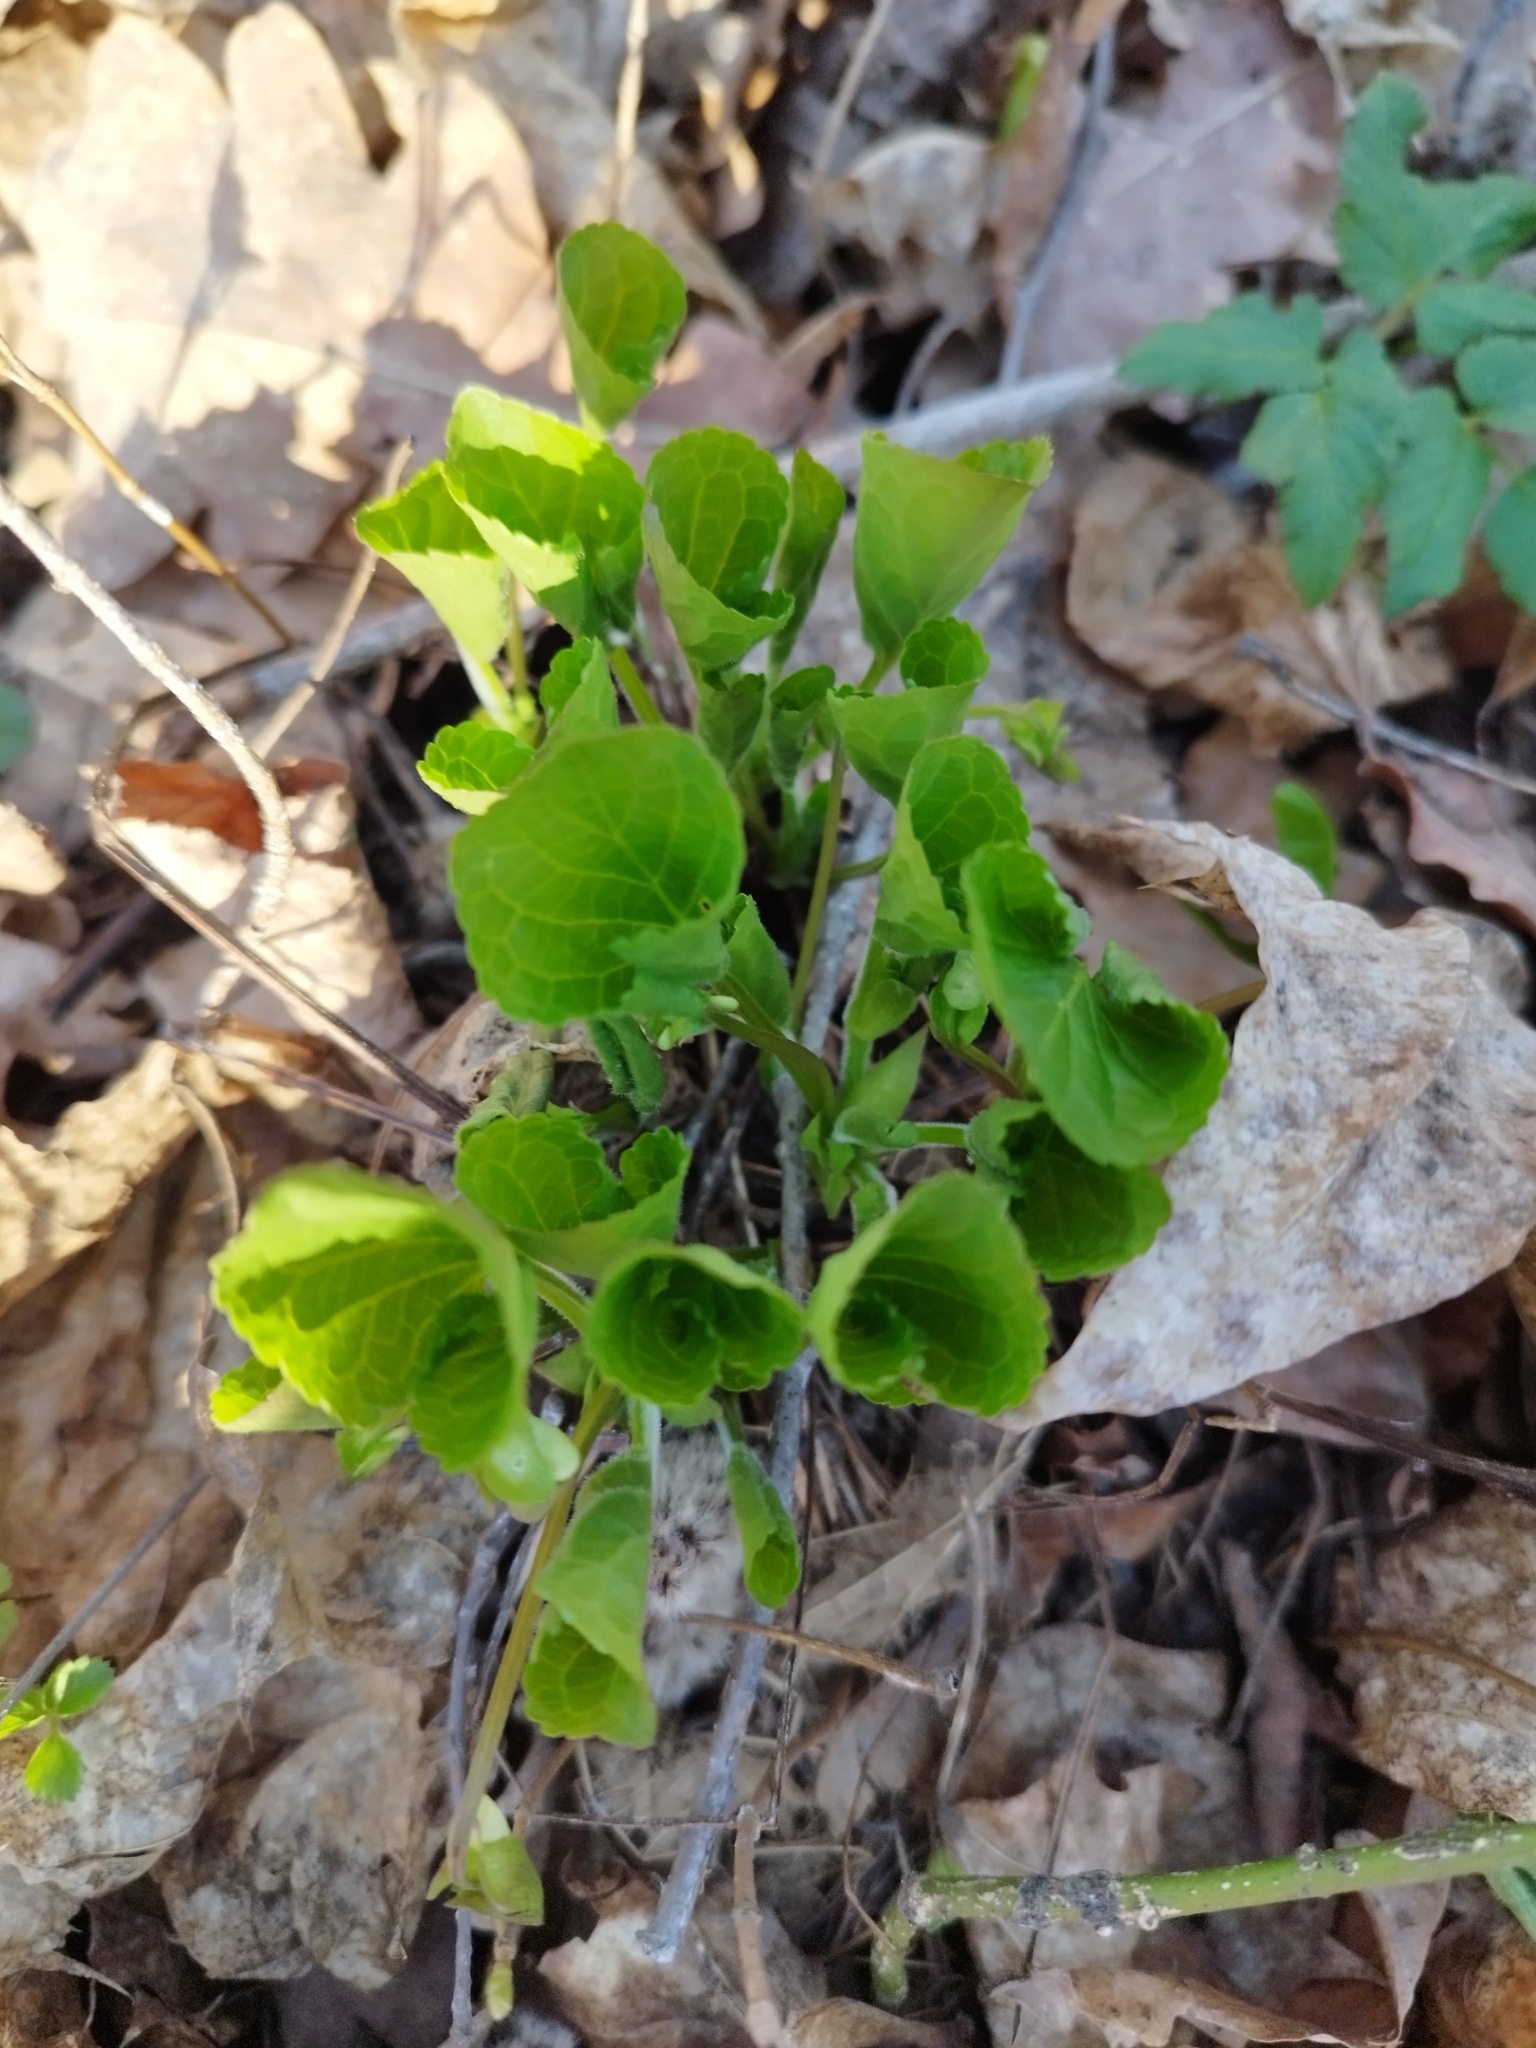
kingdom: Plantae
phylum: Tracheophyta
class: Magnoliopsida
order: Malpighiales
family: Violaceae
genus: Viola
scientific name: Viola mirabilis
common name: Wonder violet
